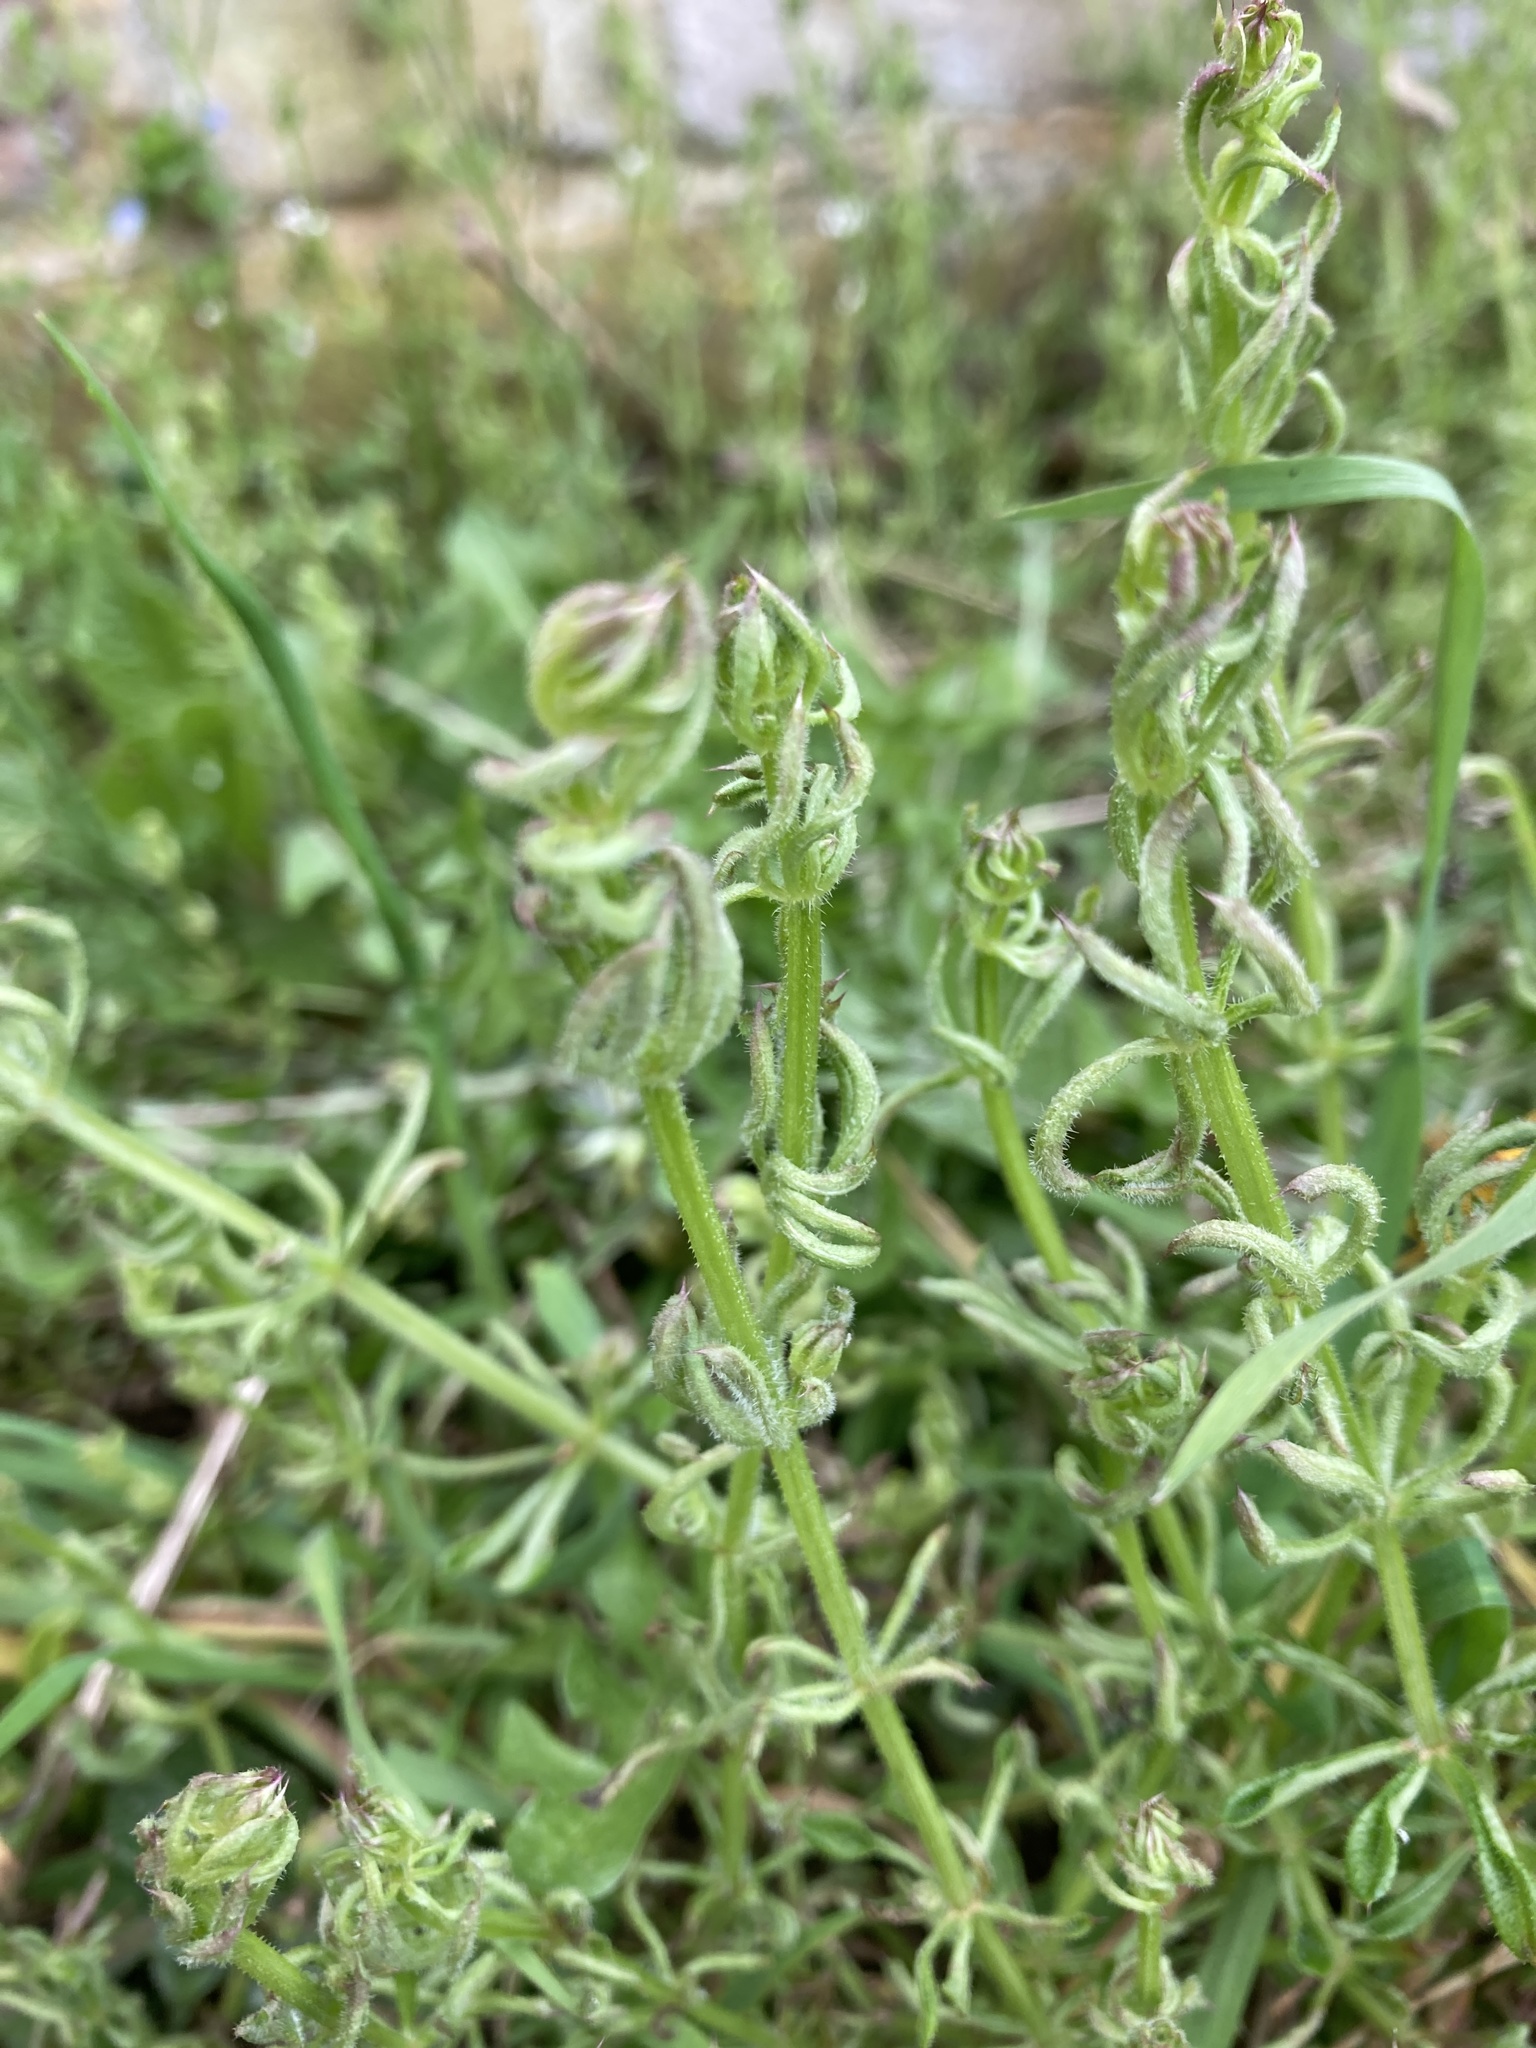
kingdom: Plantae
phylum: Tracheophyta
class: Magnoliopsida
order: Gentianales
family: Rubiaceae
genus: Galium
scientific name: Galium aparine
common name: Cleavers
